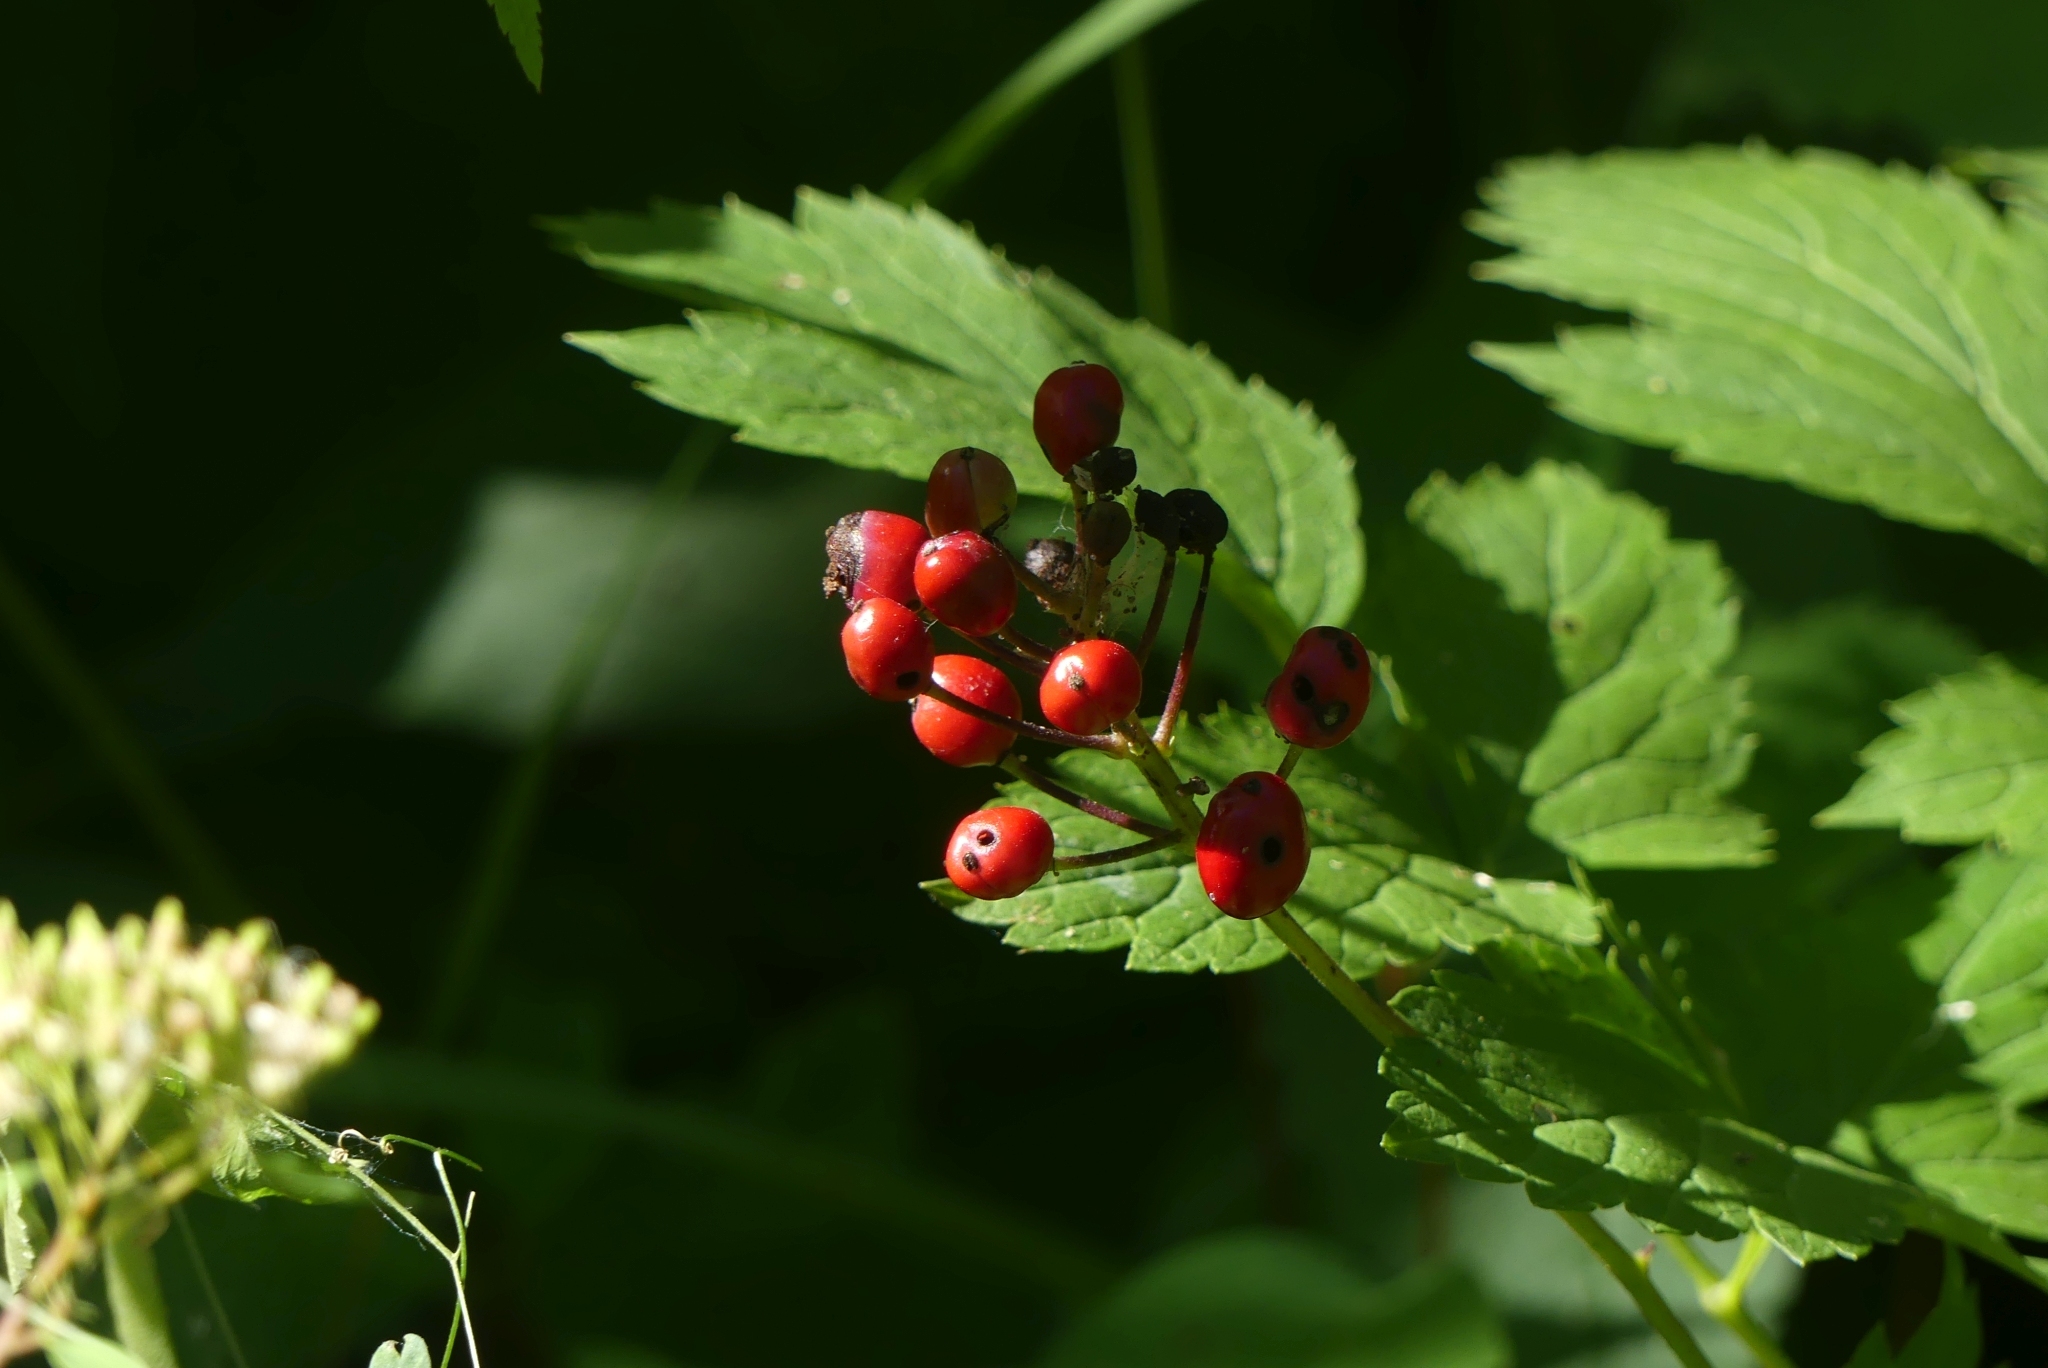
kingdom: Plantae
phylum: Tracheophyta
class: Magnoliopsida
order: Ranunculales
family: Ranunculaceae
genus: Actaea
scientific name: Actaea rubra
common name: Red baneberry
